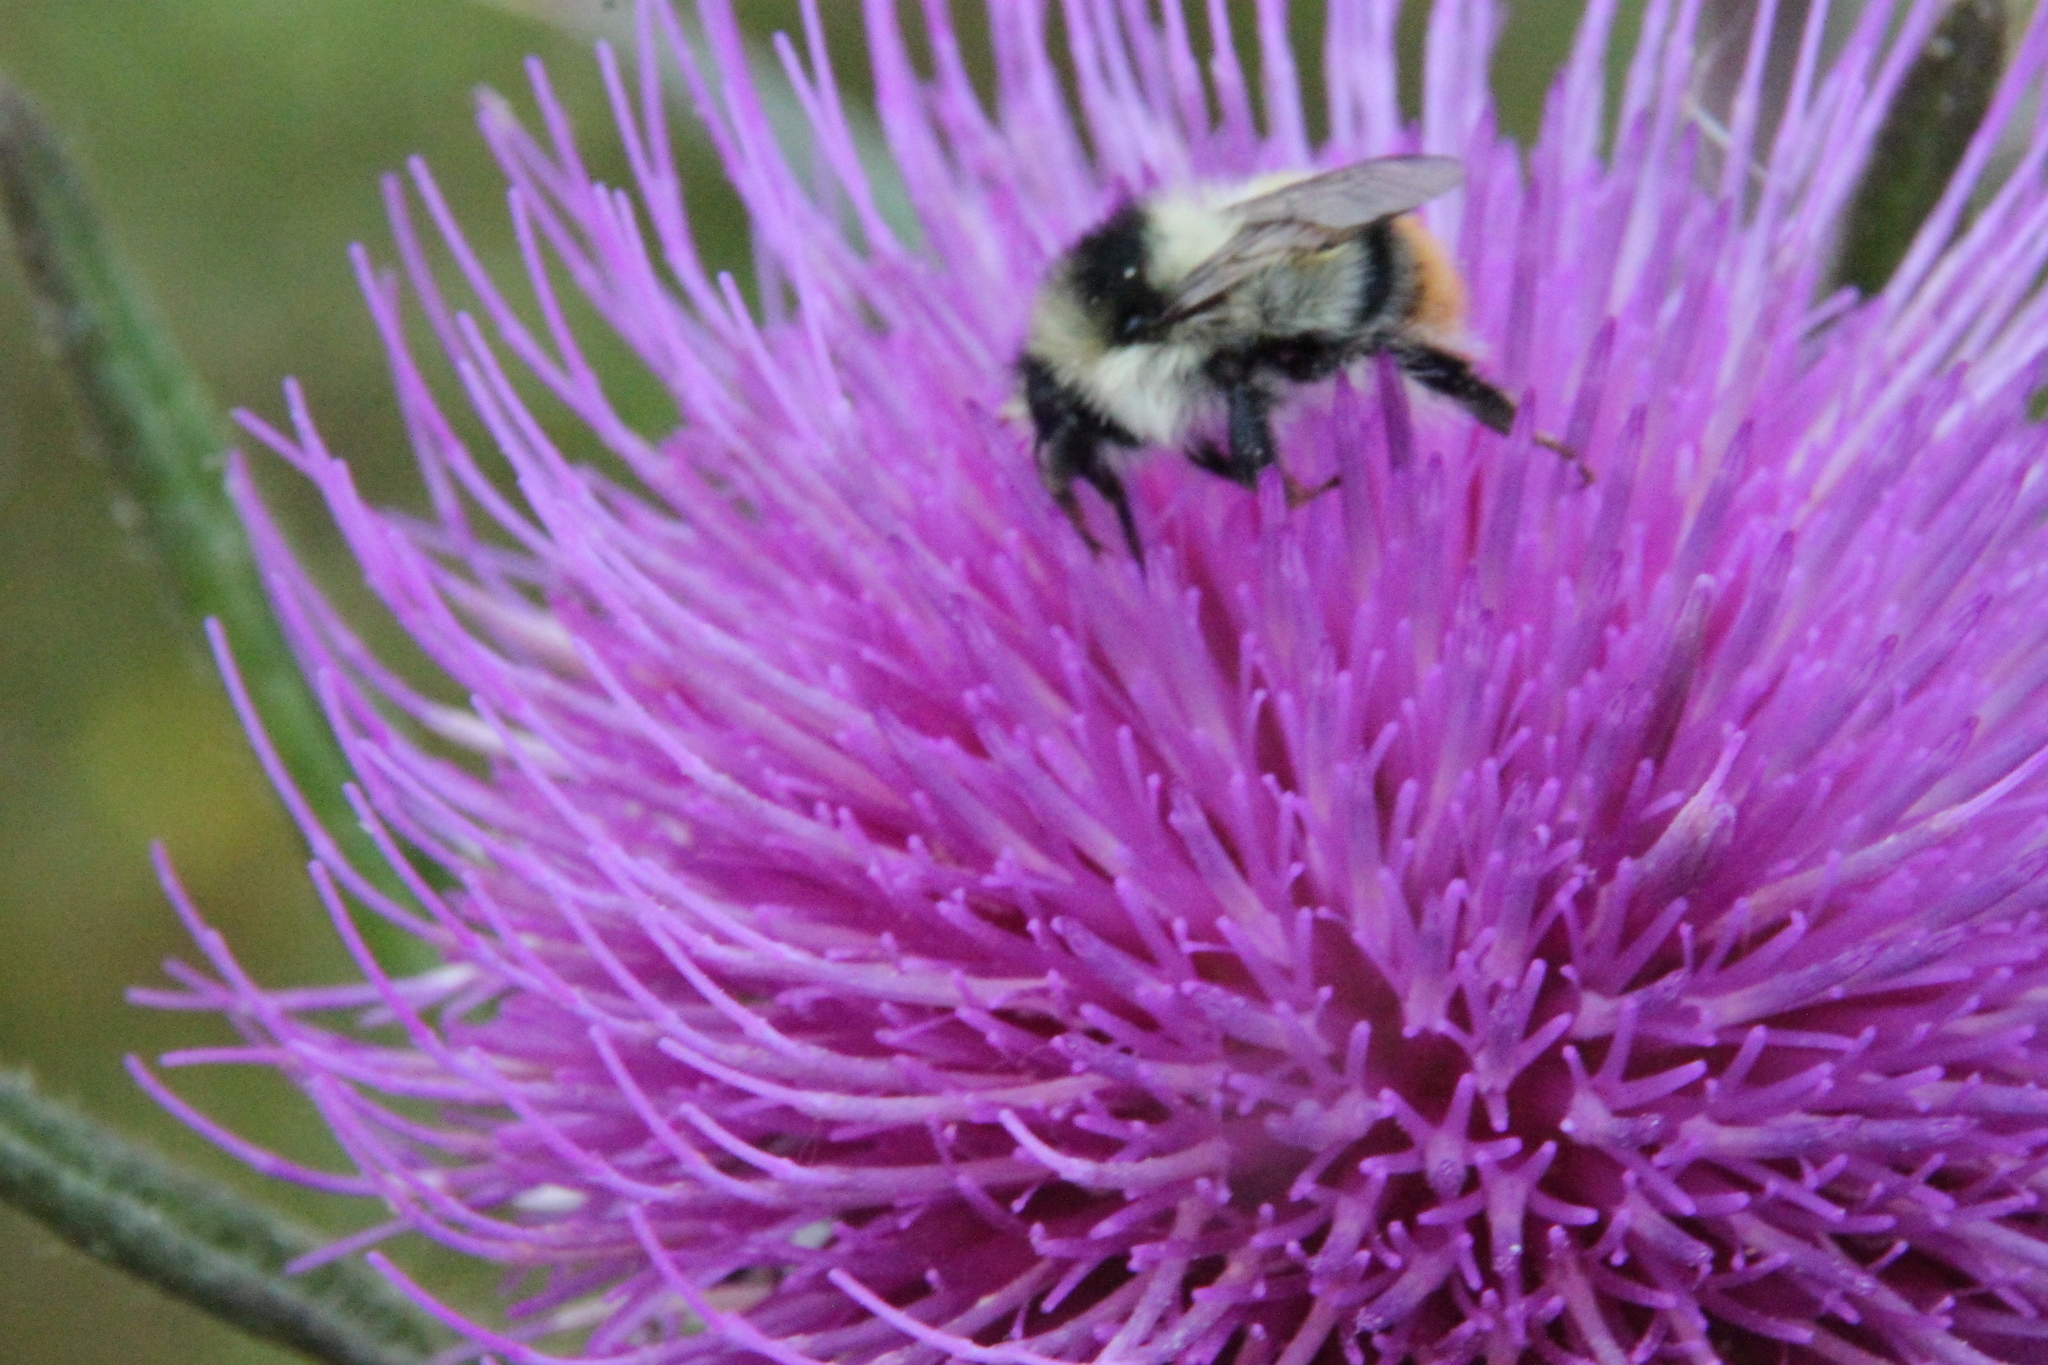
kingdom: Animalia
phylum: Arthropoda
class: Insecta
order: Hymenoptera
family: Apidae
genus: Bombus
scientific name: Bombus sylvarum
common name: Shrill carder bee
